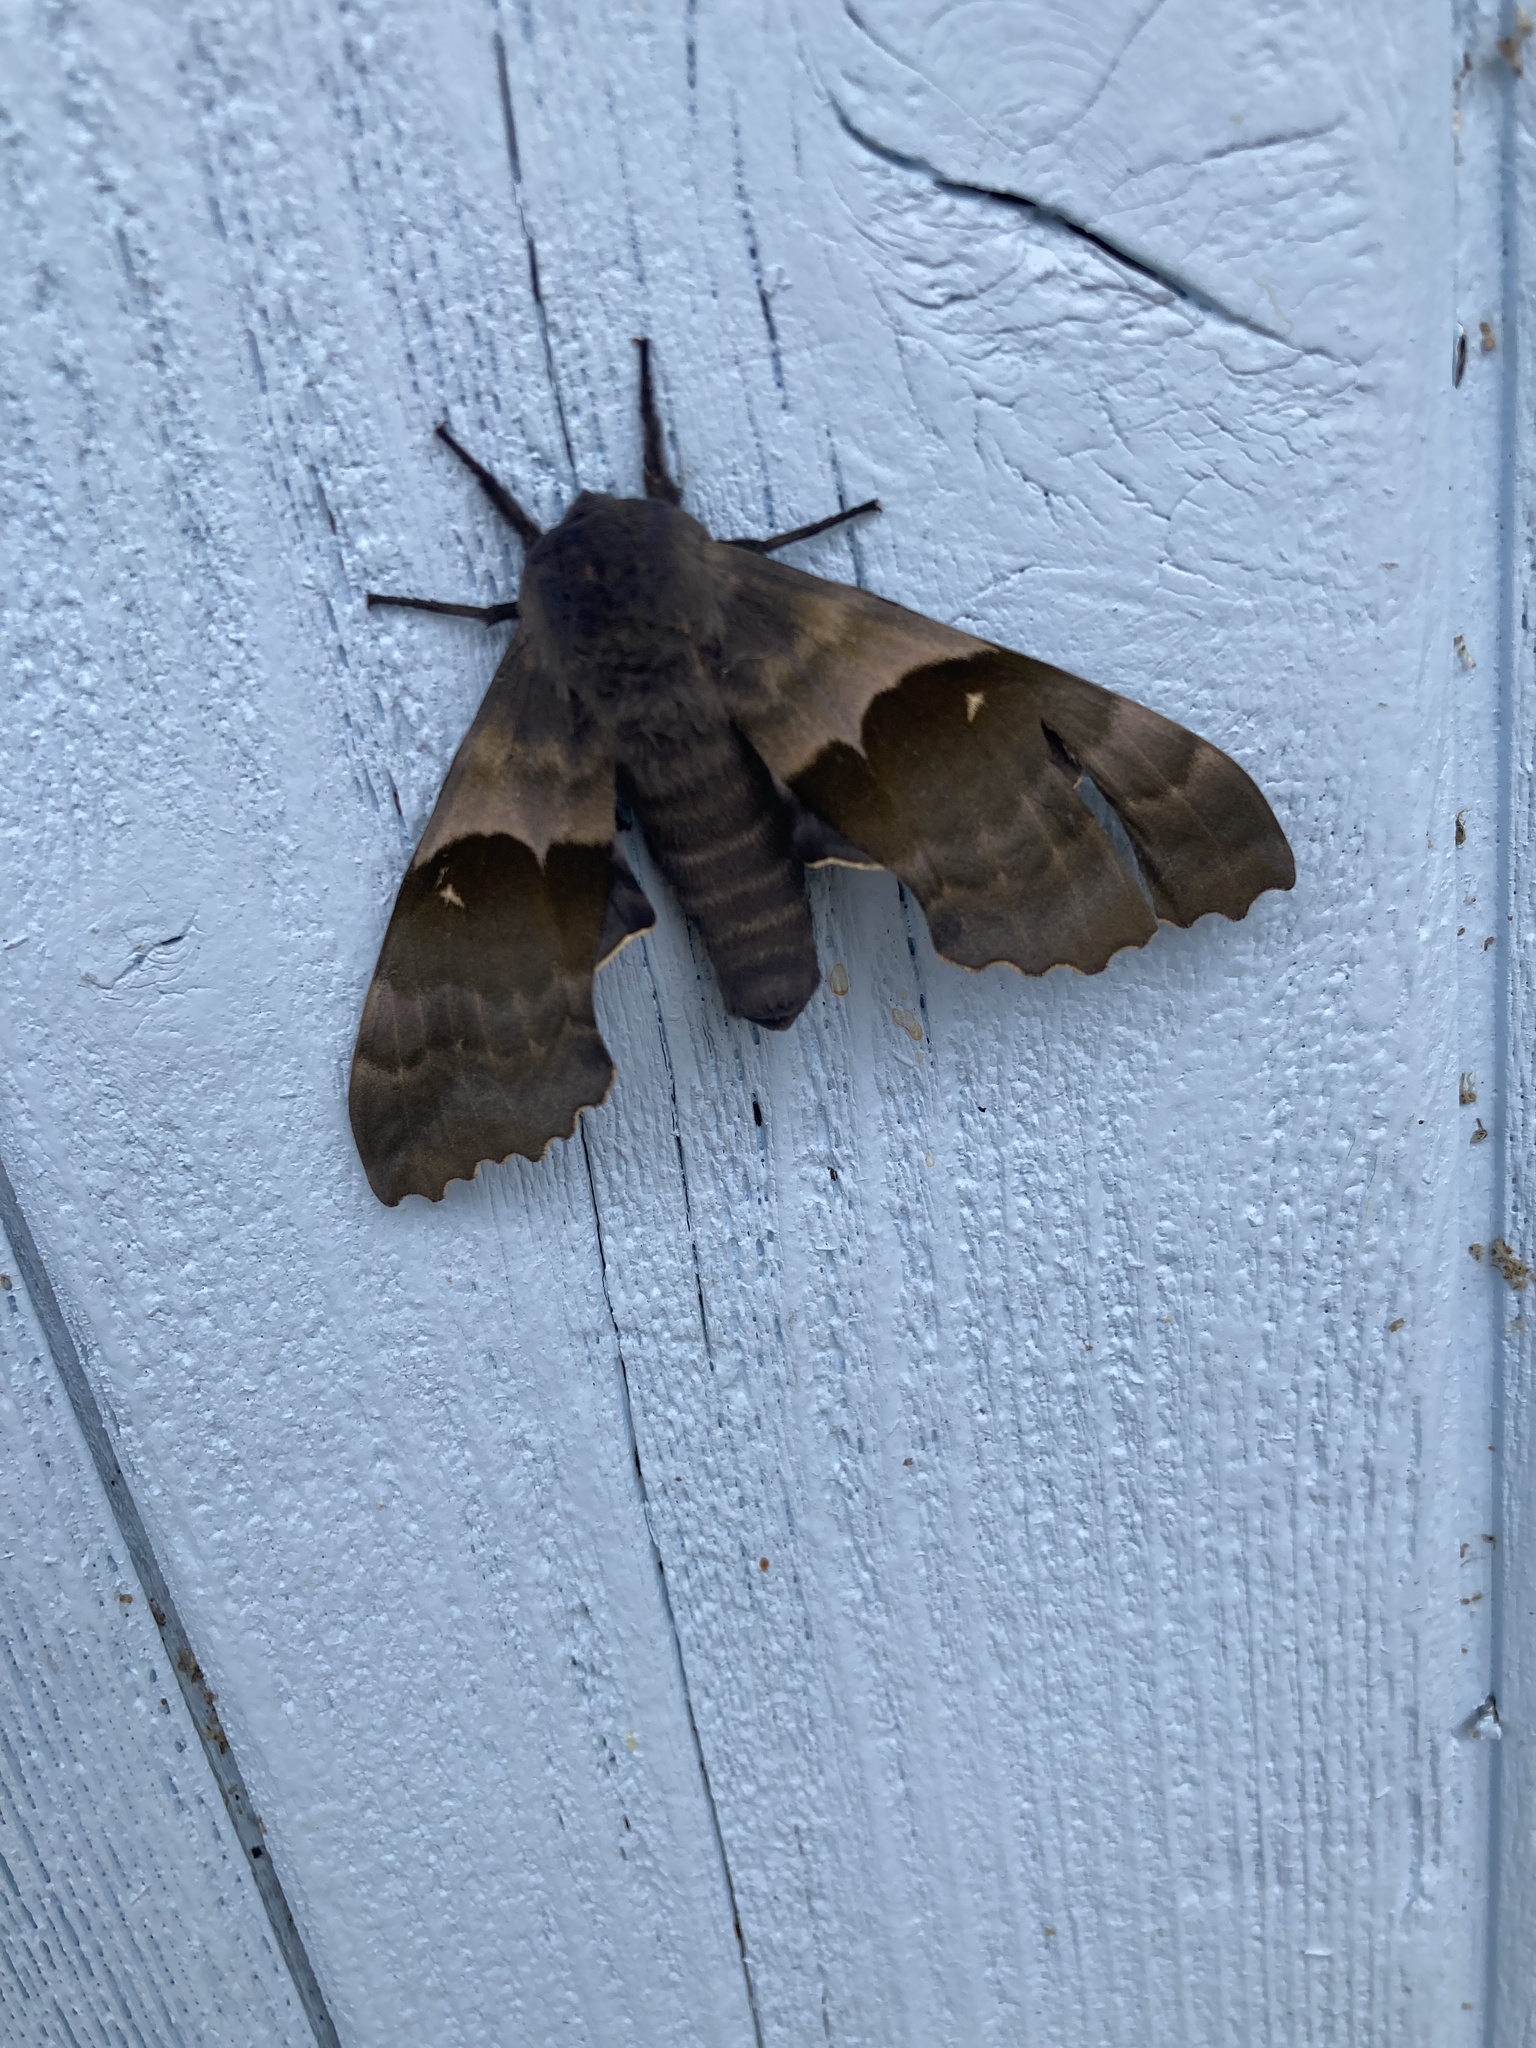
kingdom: Animalia
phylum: Arthropoda
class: Insecta
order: Lepidoptera
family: Sphingidae
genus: Pachysphinx
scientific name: Pachysphinx modesta
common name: Big poplar sphinx
